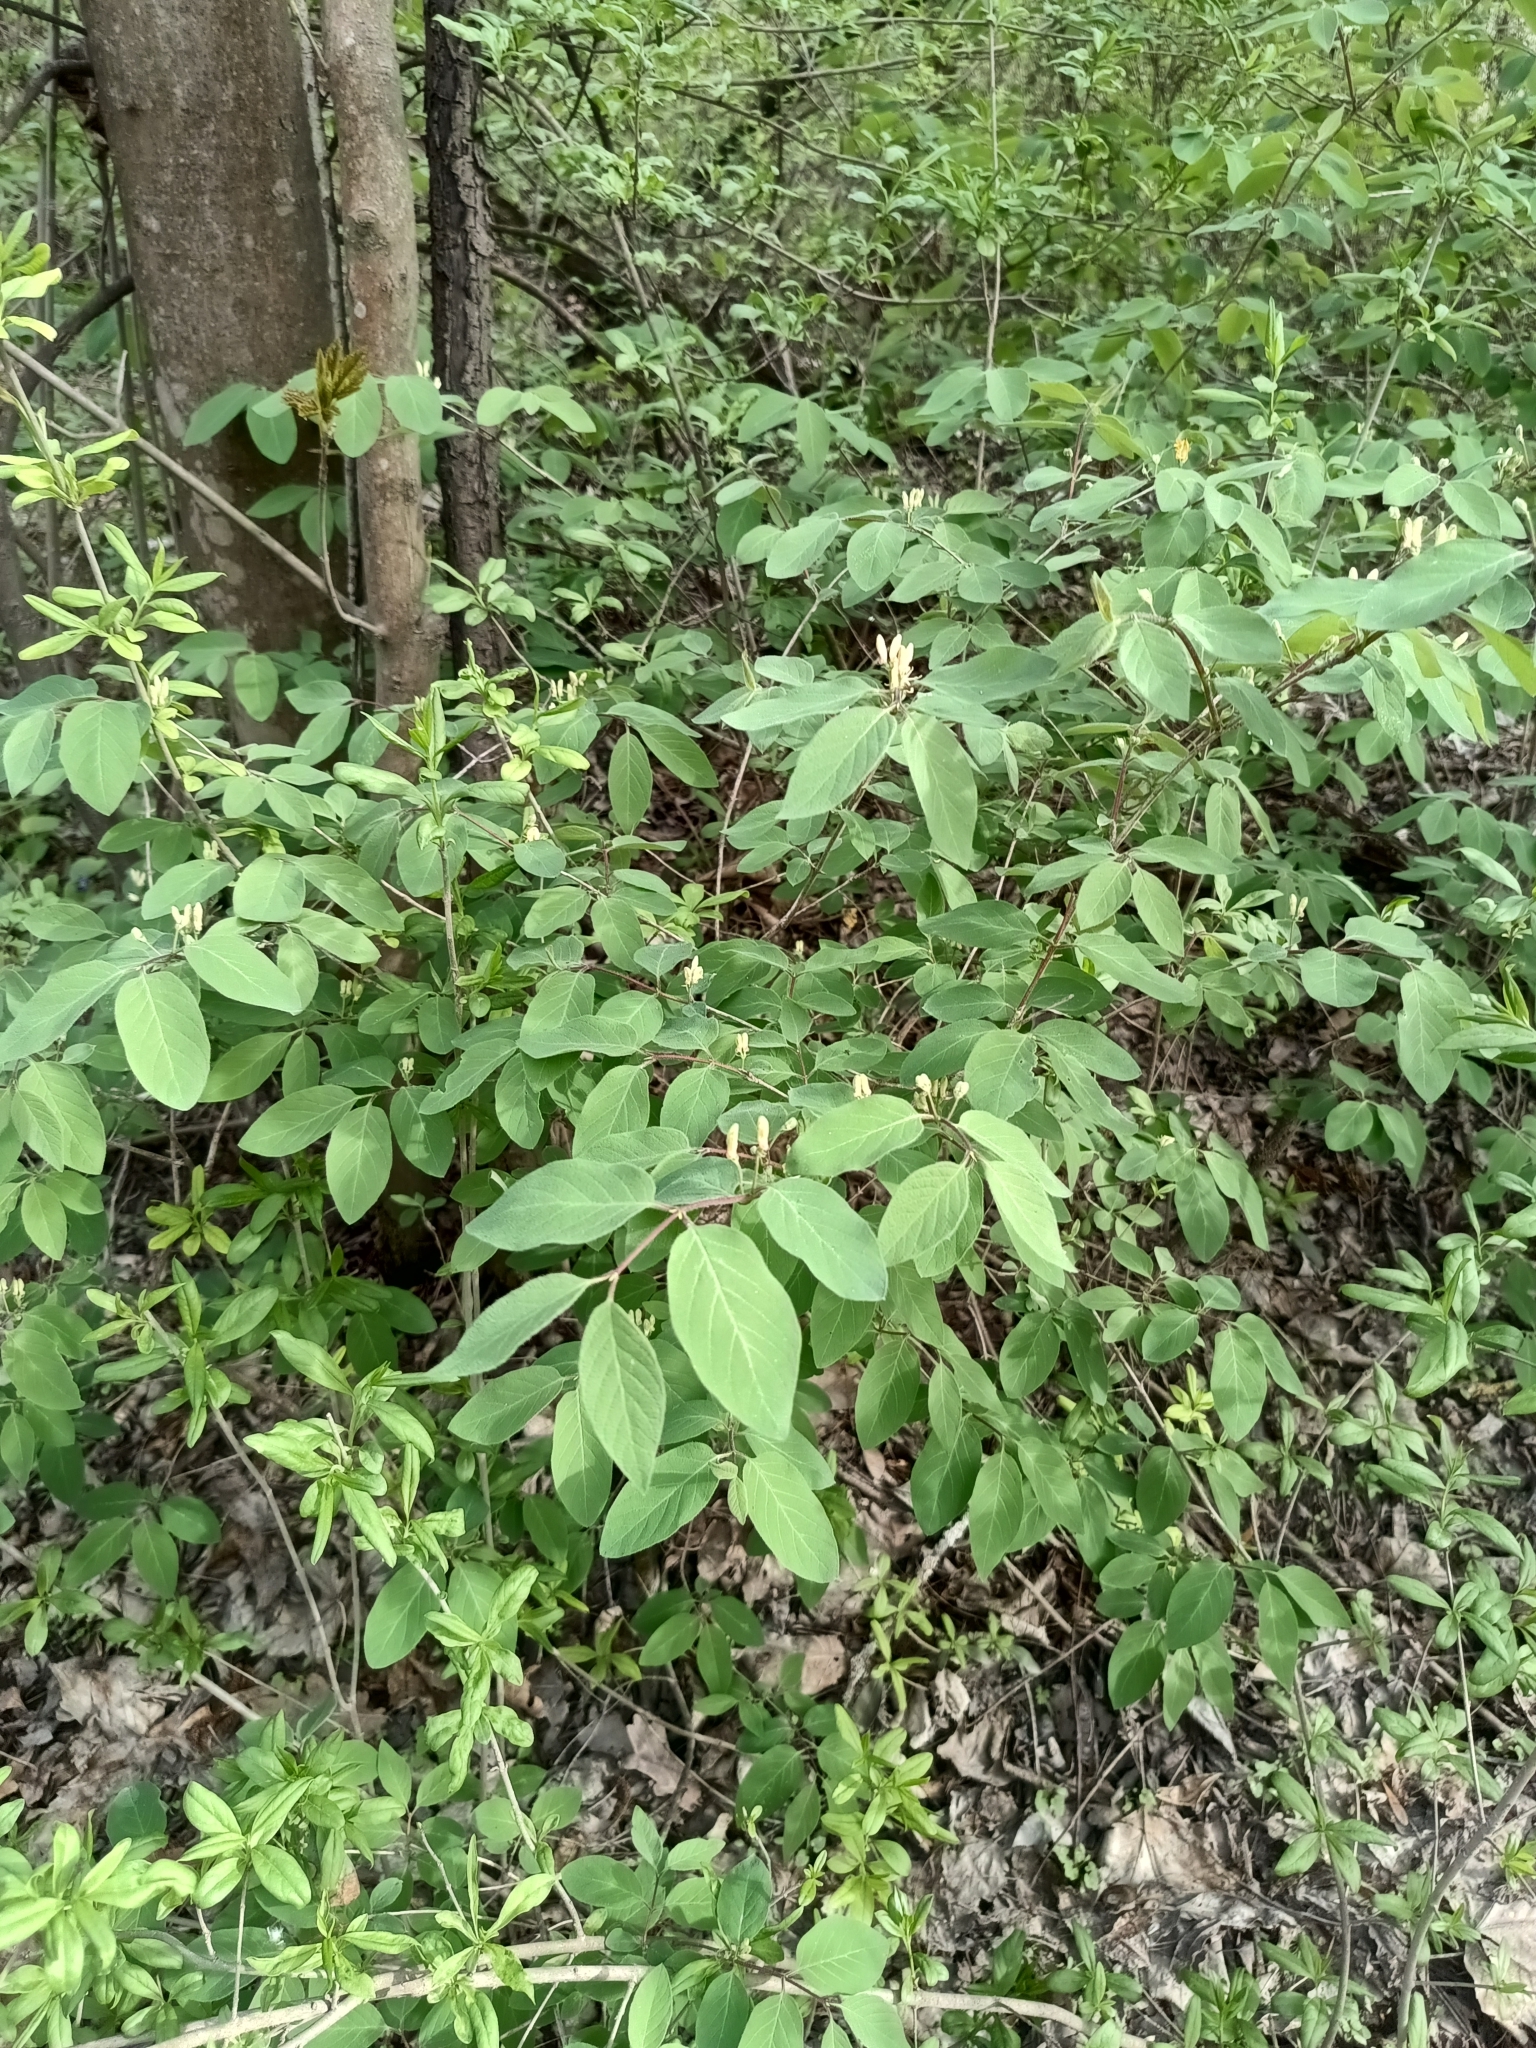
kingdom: Plantae
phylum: Tracheophyta
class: Magnoliopsida
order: Dipsacales
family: Caprifoliaceae
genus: Lonicera
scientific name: Lonicera xylosteum
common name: Fly honeysuckle
